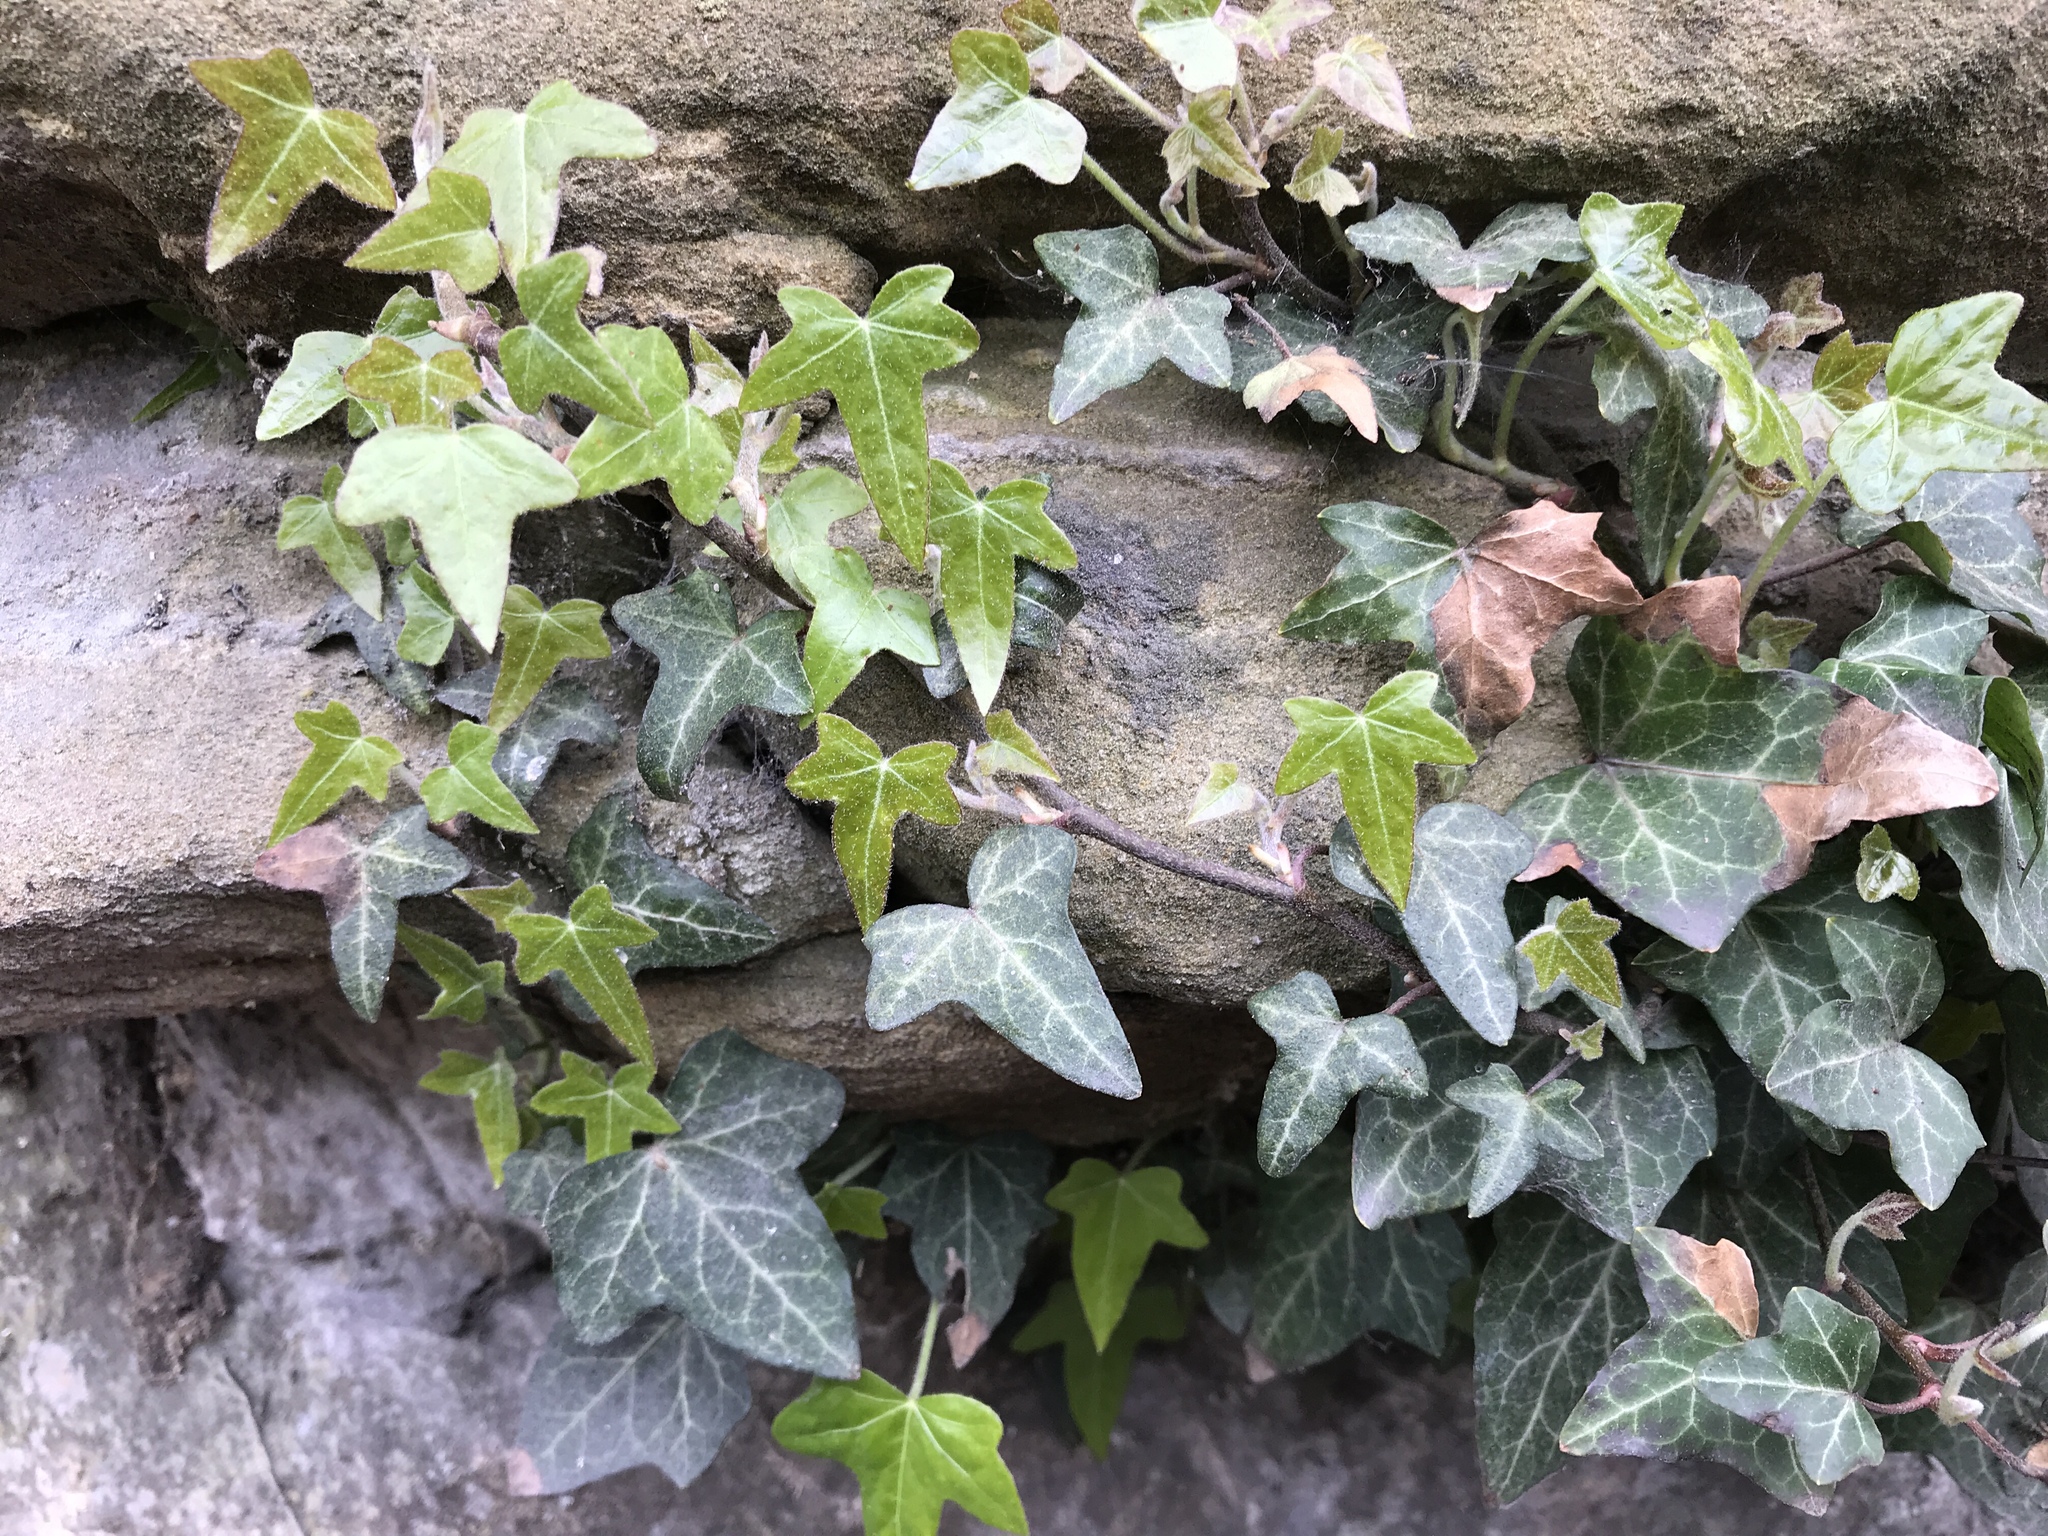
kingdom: Plantae
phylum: Tracheophyta
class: Magnoliopsida
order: Apiales
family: Araliaceae
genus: Hedera
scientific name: Hedera helix
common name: Ivy
